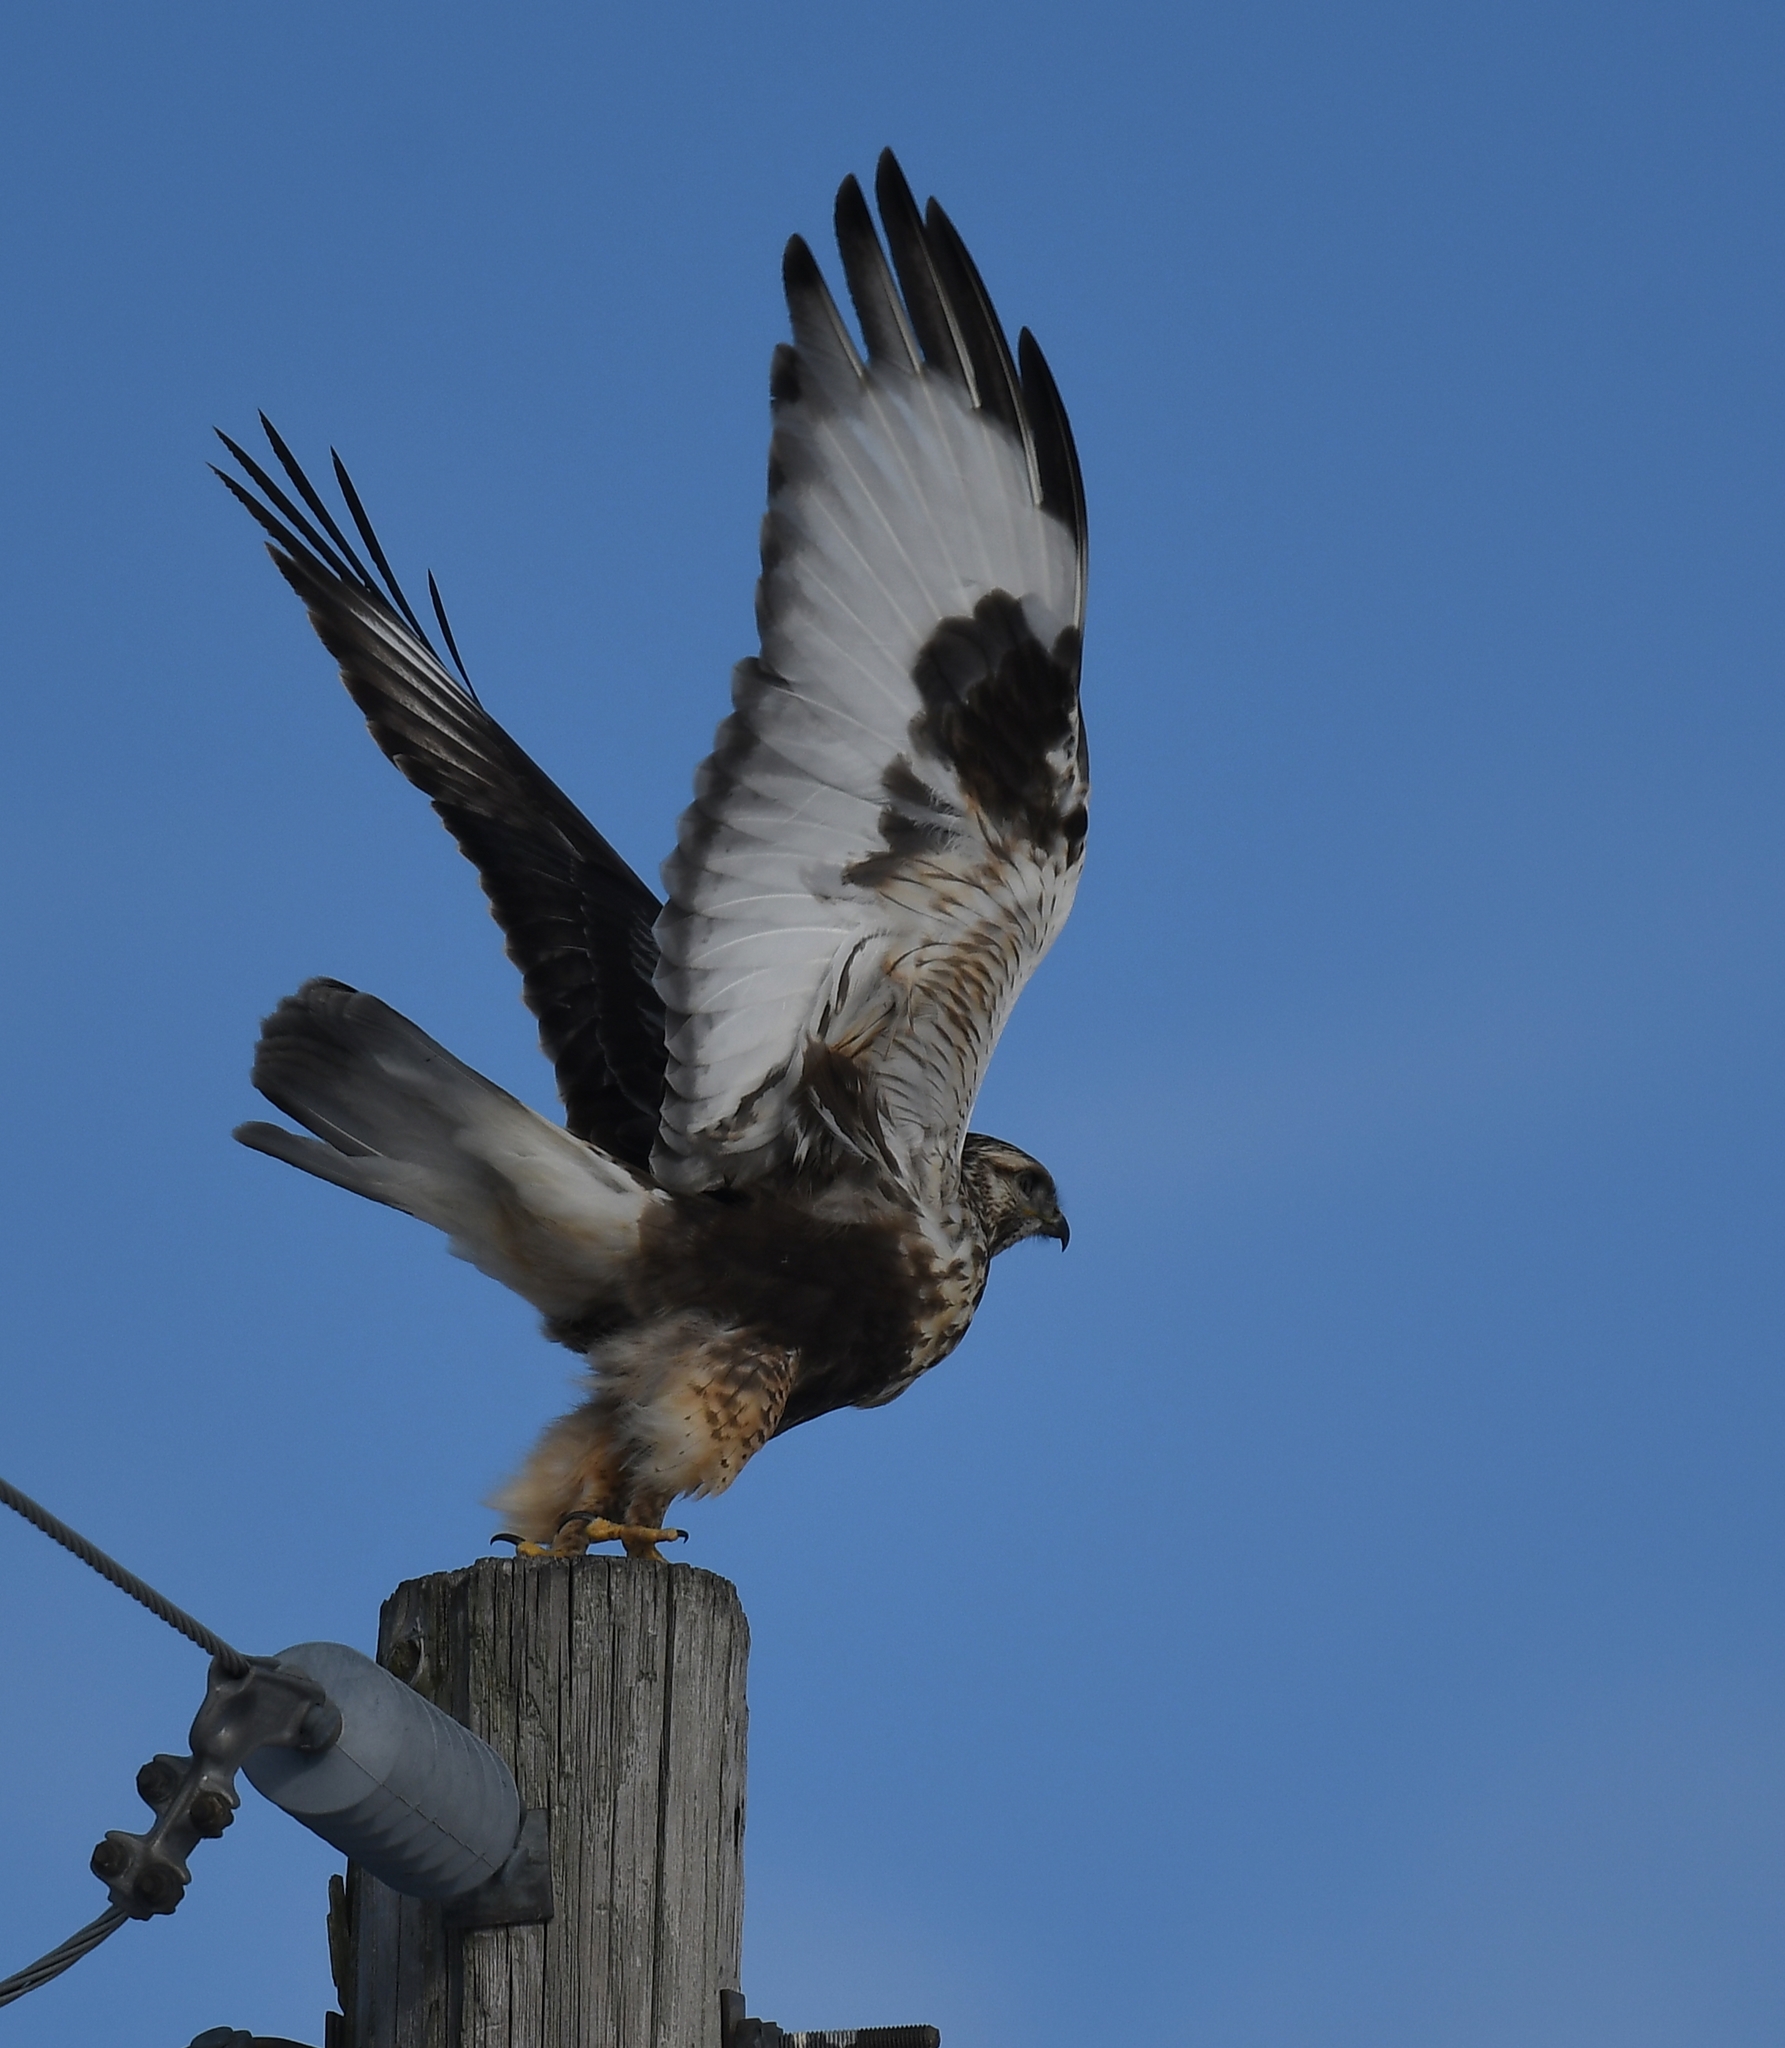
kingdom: Animalia
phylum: Chordata
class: Aves
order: Accipitriformes
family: Accipitridae
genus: Buteo
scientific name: Buteo lagopus
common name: Rough-legged buzzard
